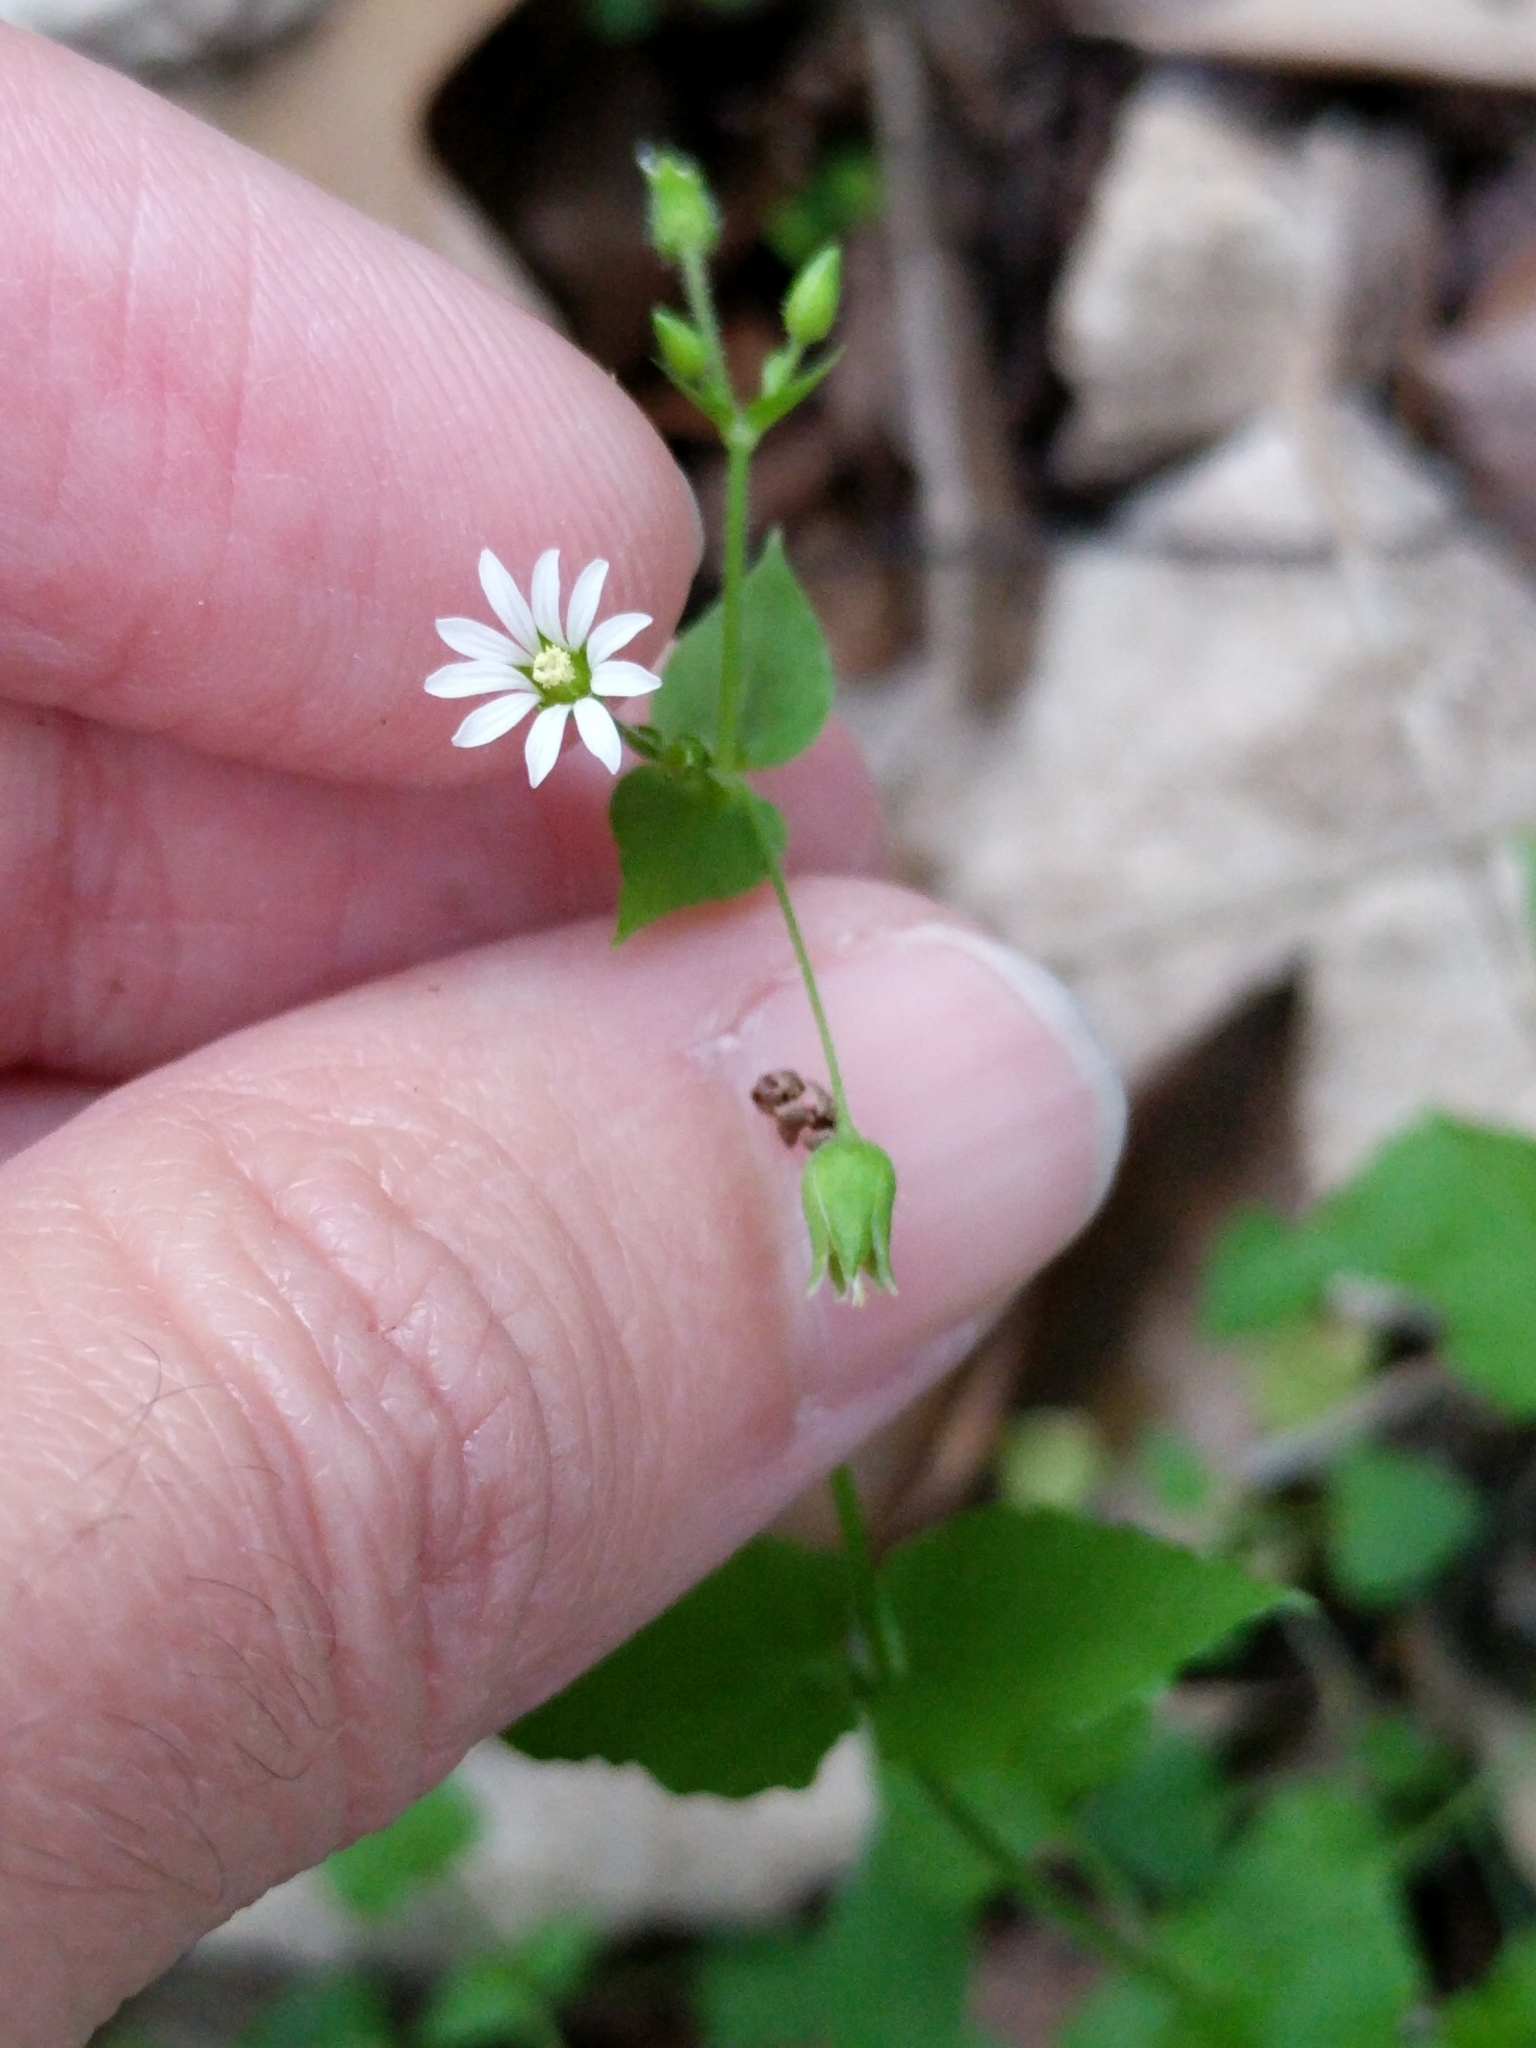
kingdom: Plantae
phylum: Tracheophyta
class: Magnoliopsida
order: Caryophyllales
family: Caryophyllaceae
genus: Stellaria
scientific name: Stellaria cuspidata
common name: Mexican chickweed
